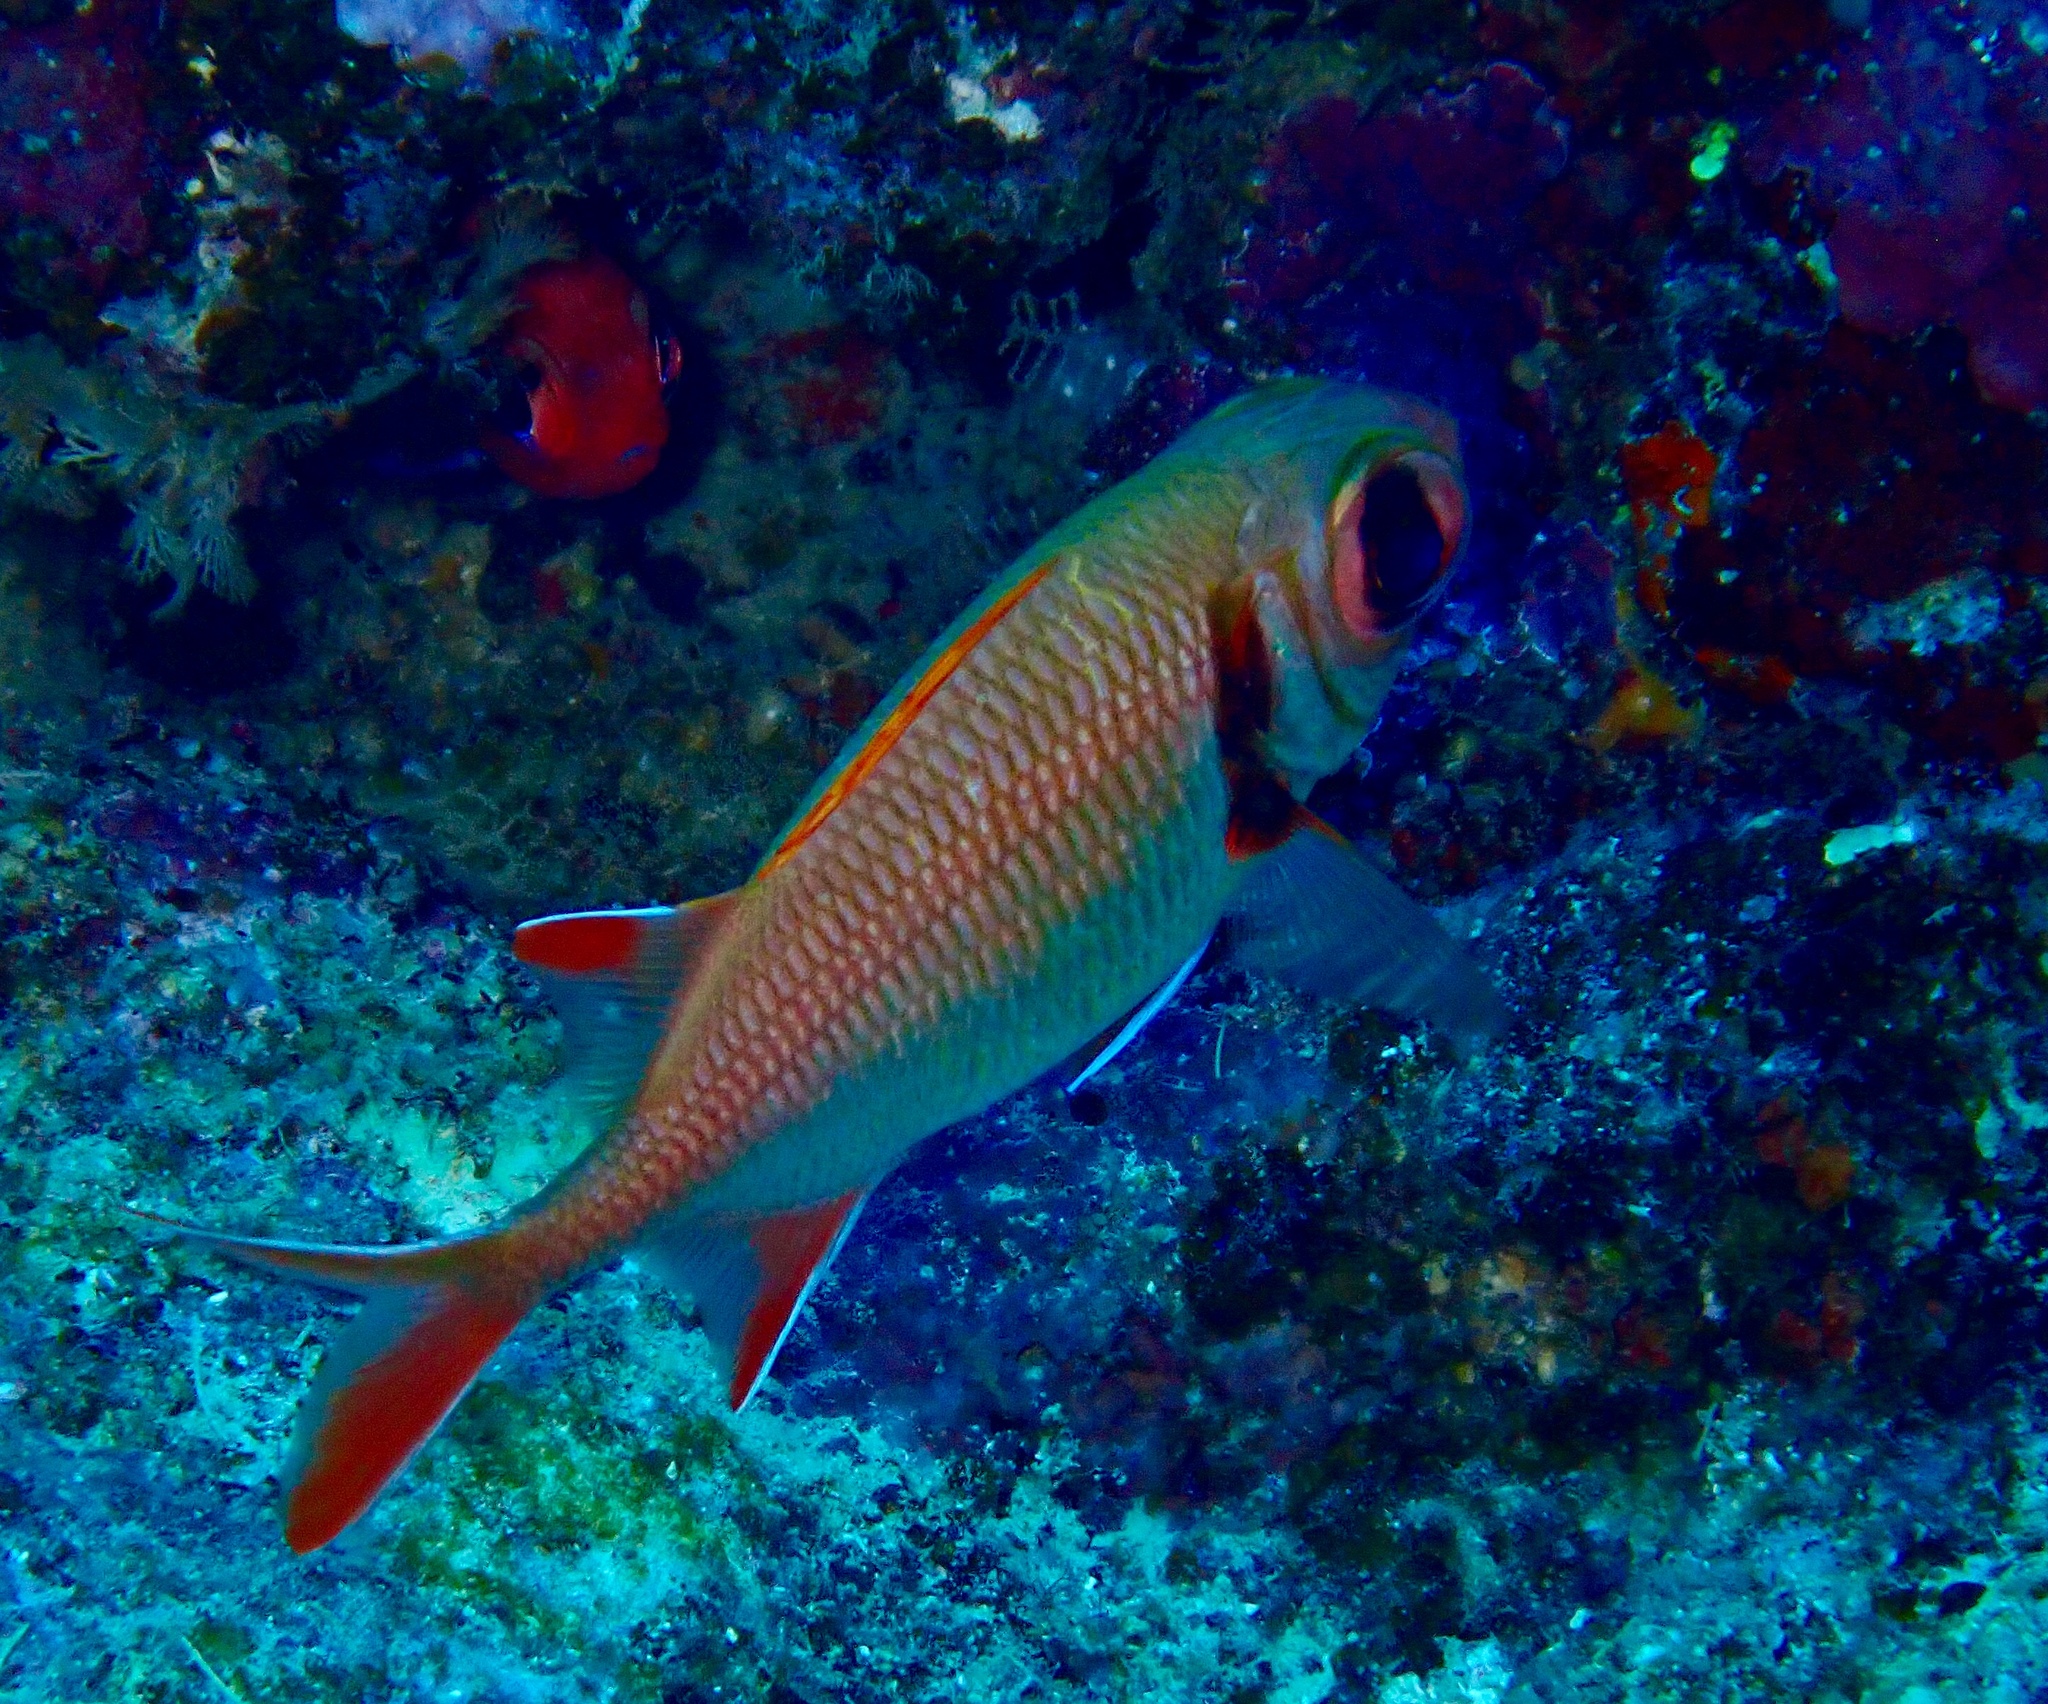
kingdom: Animalia
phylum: Chordata
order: Beryciformes
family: Holocentridae
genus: Myripristis
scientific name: Myripristis kuntee
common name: Epaulette soldierfish
